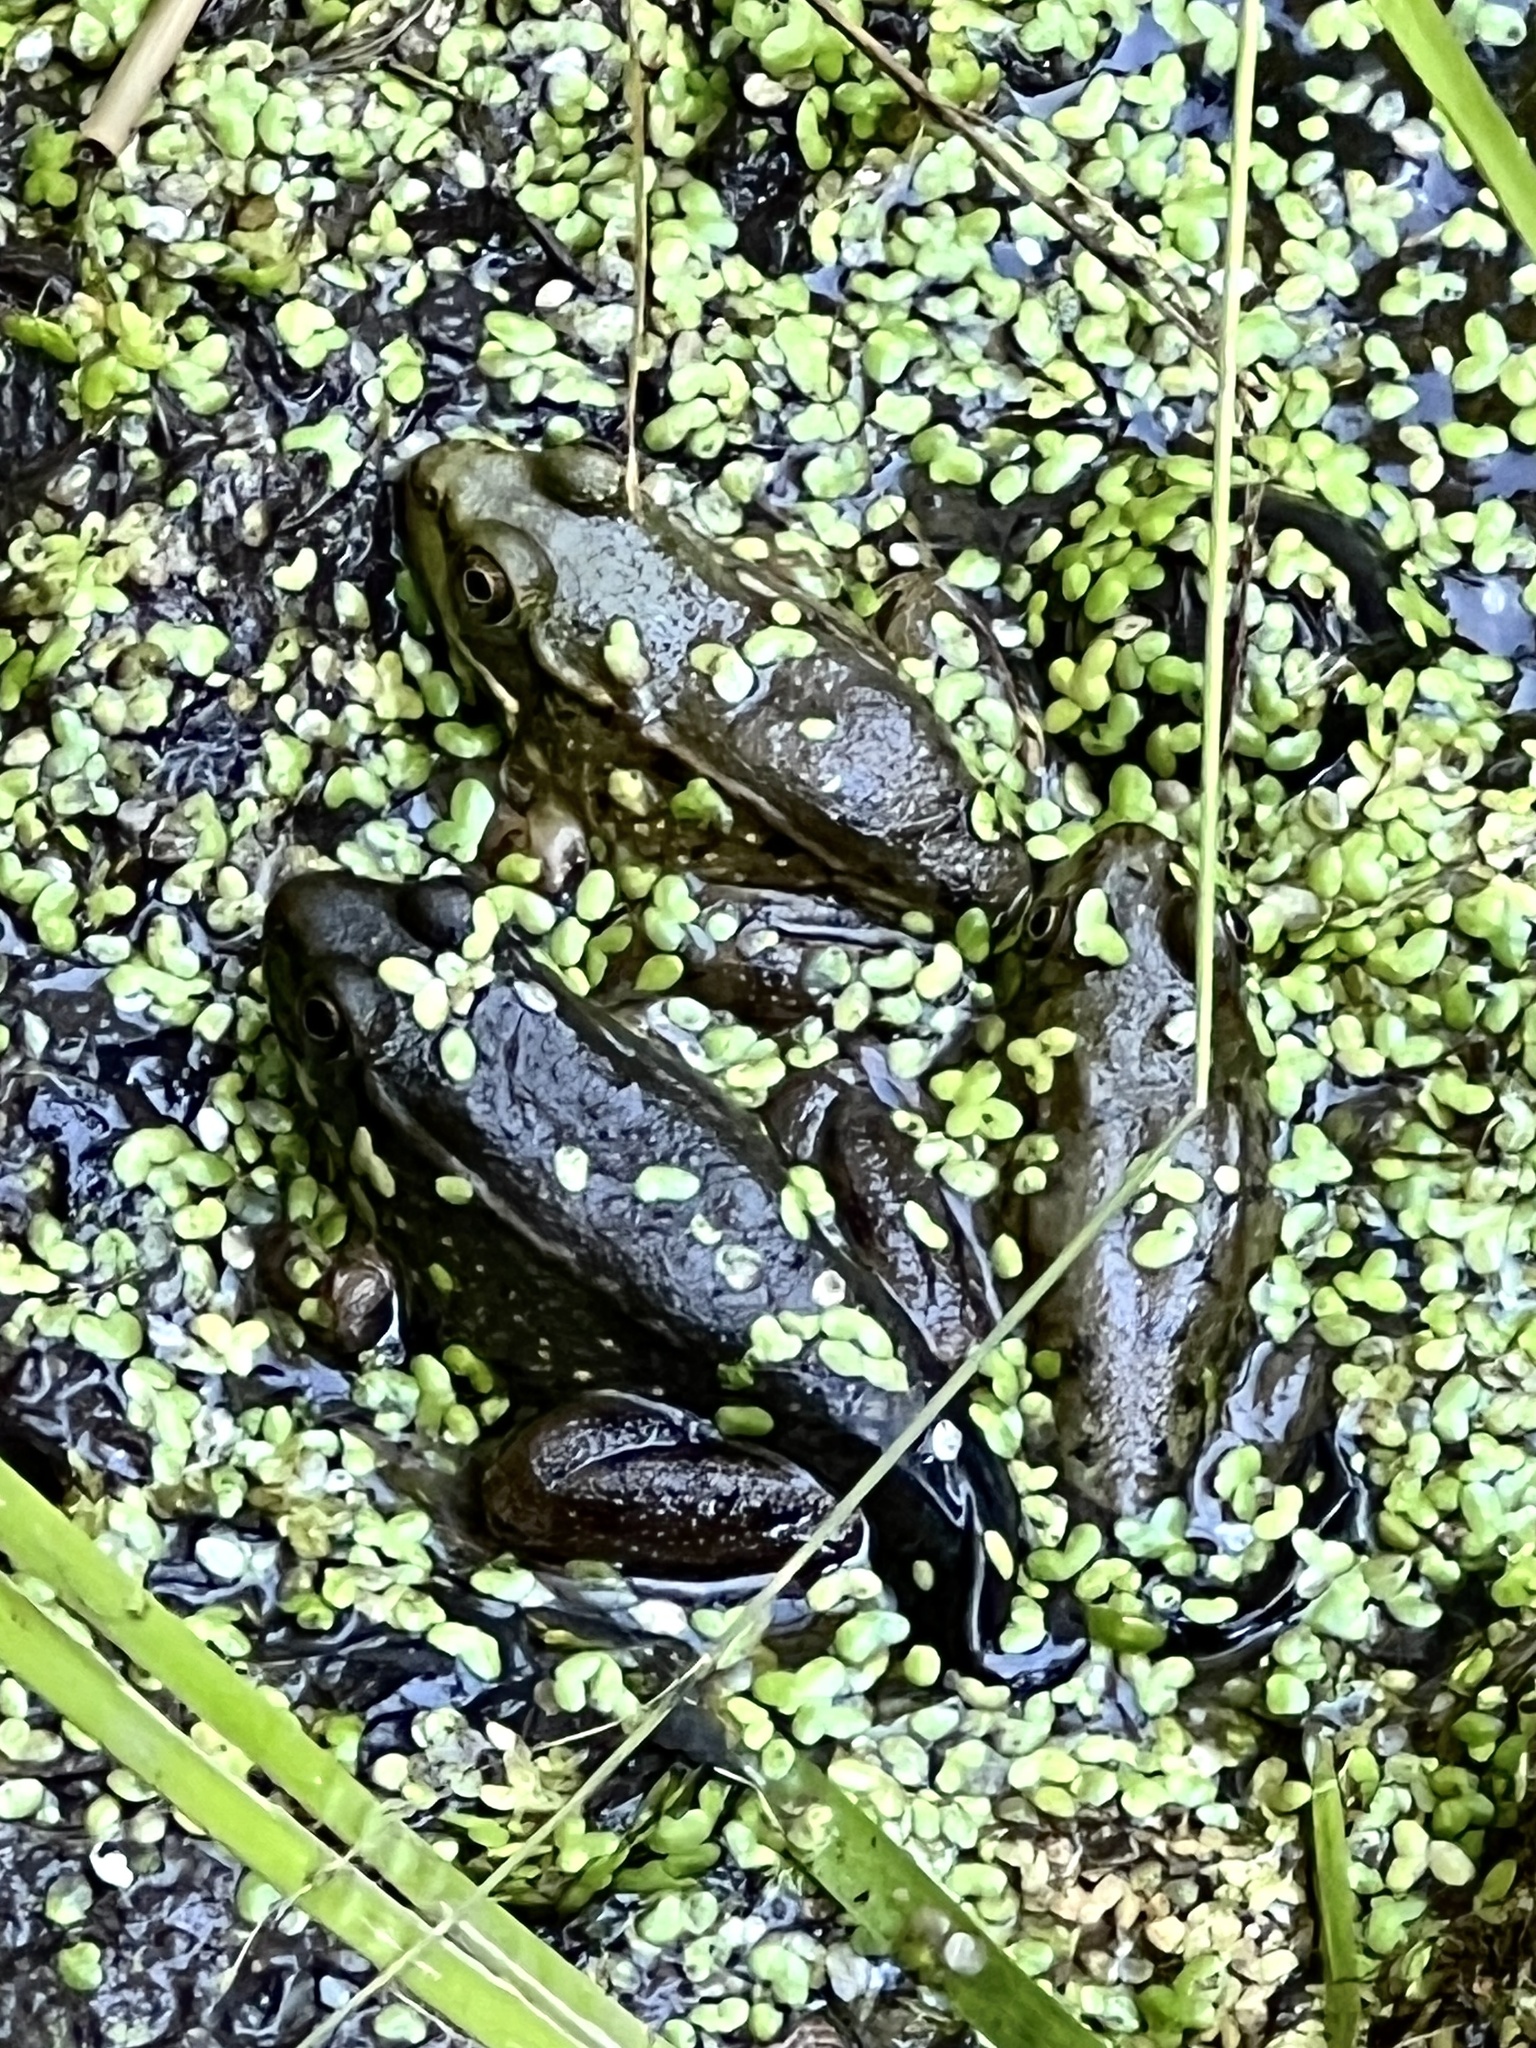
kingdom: Animalia
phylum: Chordata
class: Amphibia
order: Anura
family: Ranidae
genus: Lithobates
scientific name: Lithobates clamitans
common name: Green frog
